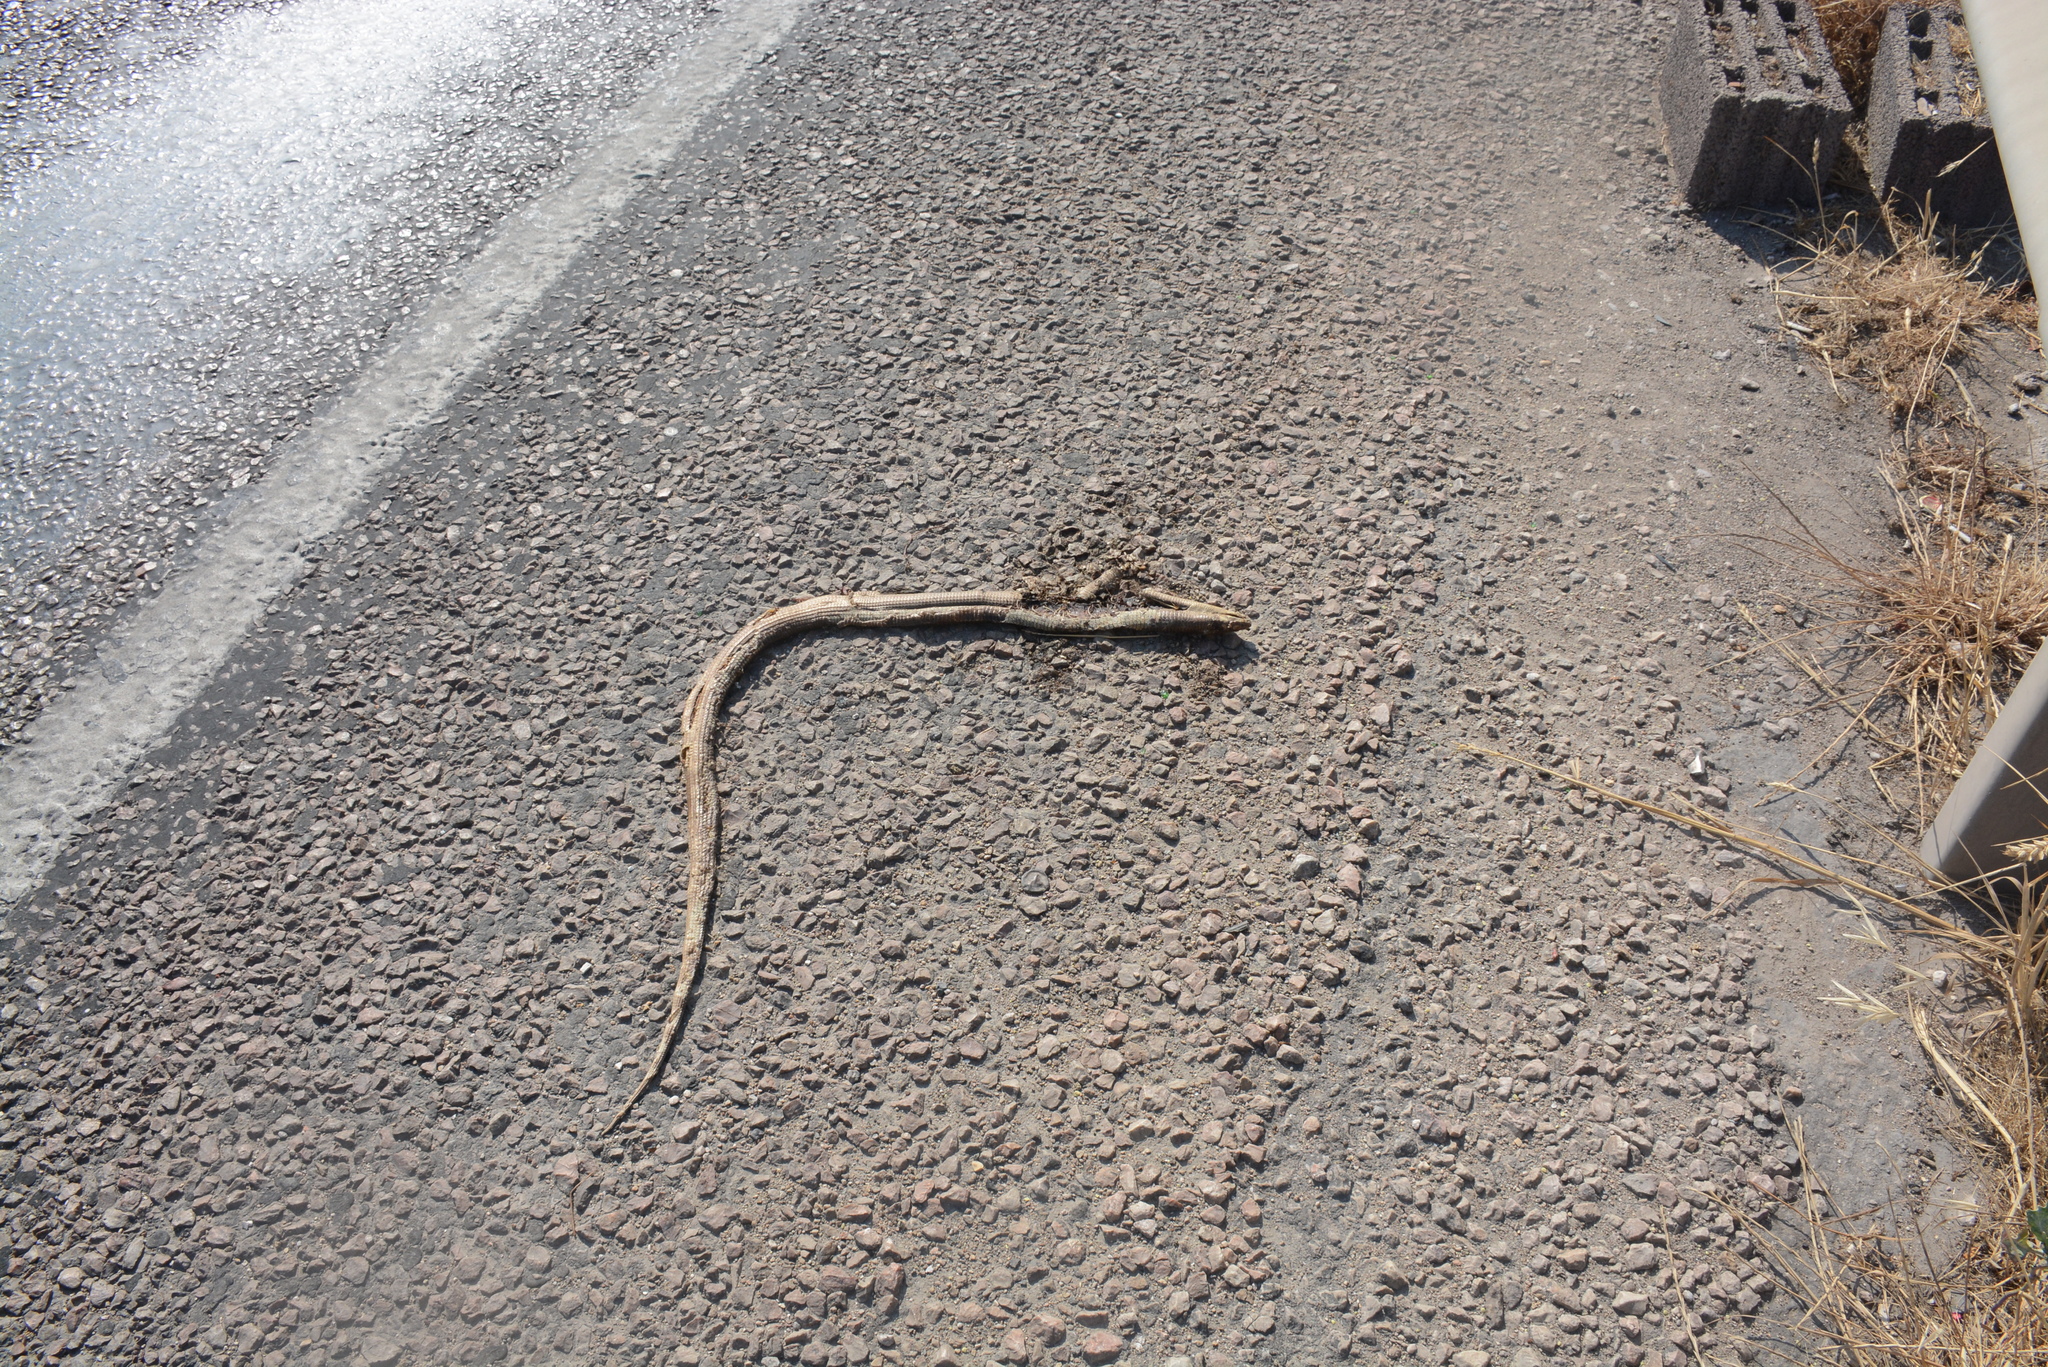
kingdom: Animalia
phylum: Chordata
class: Squamata
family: Anguidae
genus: Pseudopus
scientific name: Pseudopus apodus
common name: European glass lizard
